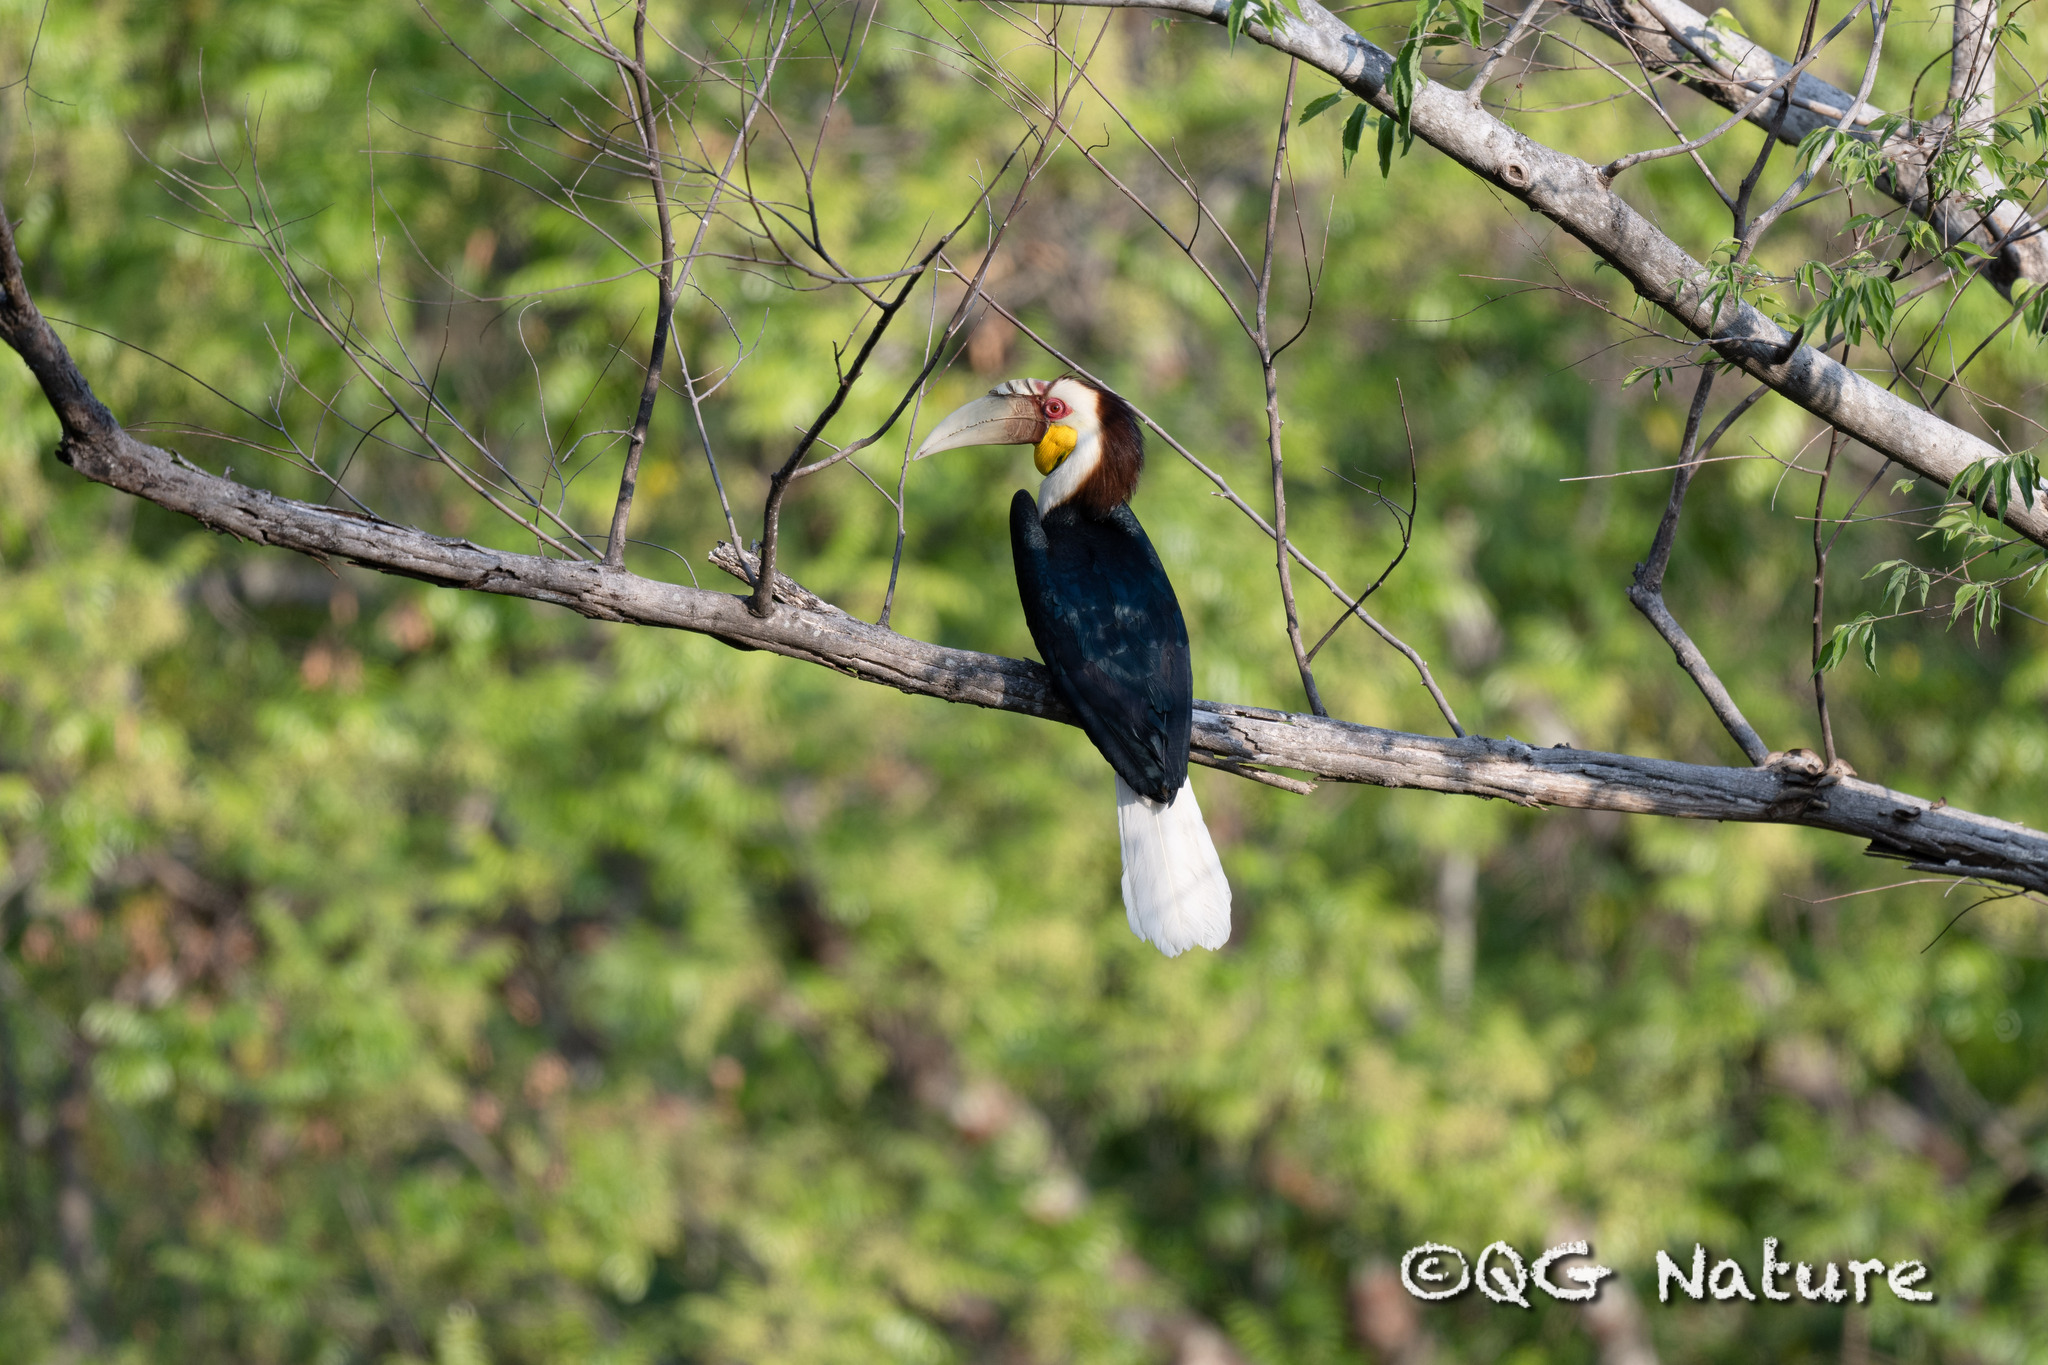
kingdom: Animalia
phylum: Chordata
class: Aves
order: Bucerotiformes
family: Bucerotidae
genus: Rhyticeros
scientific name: Rhyticeros undulatus
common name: Wreathed hornbill
